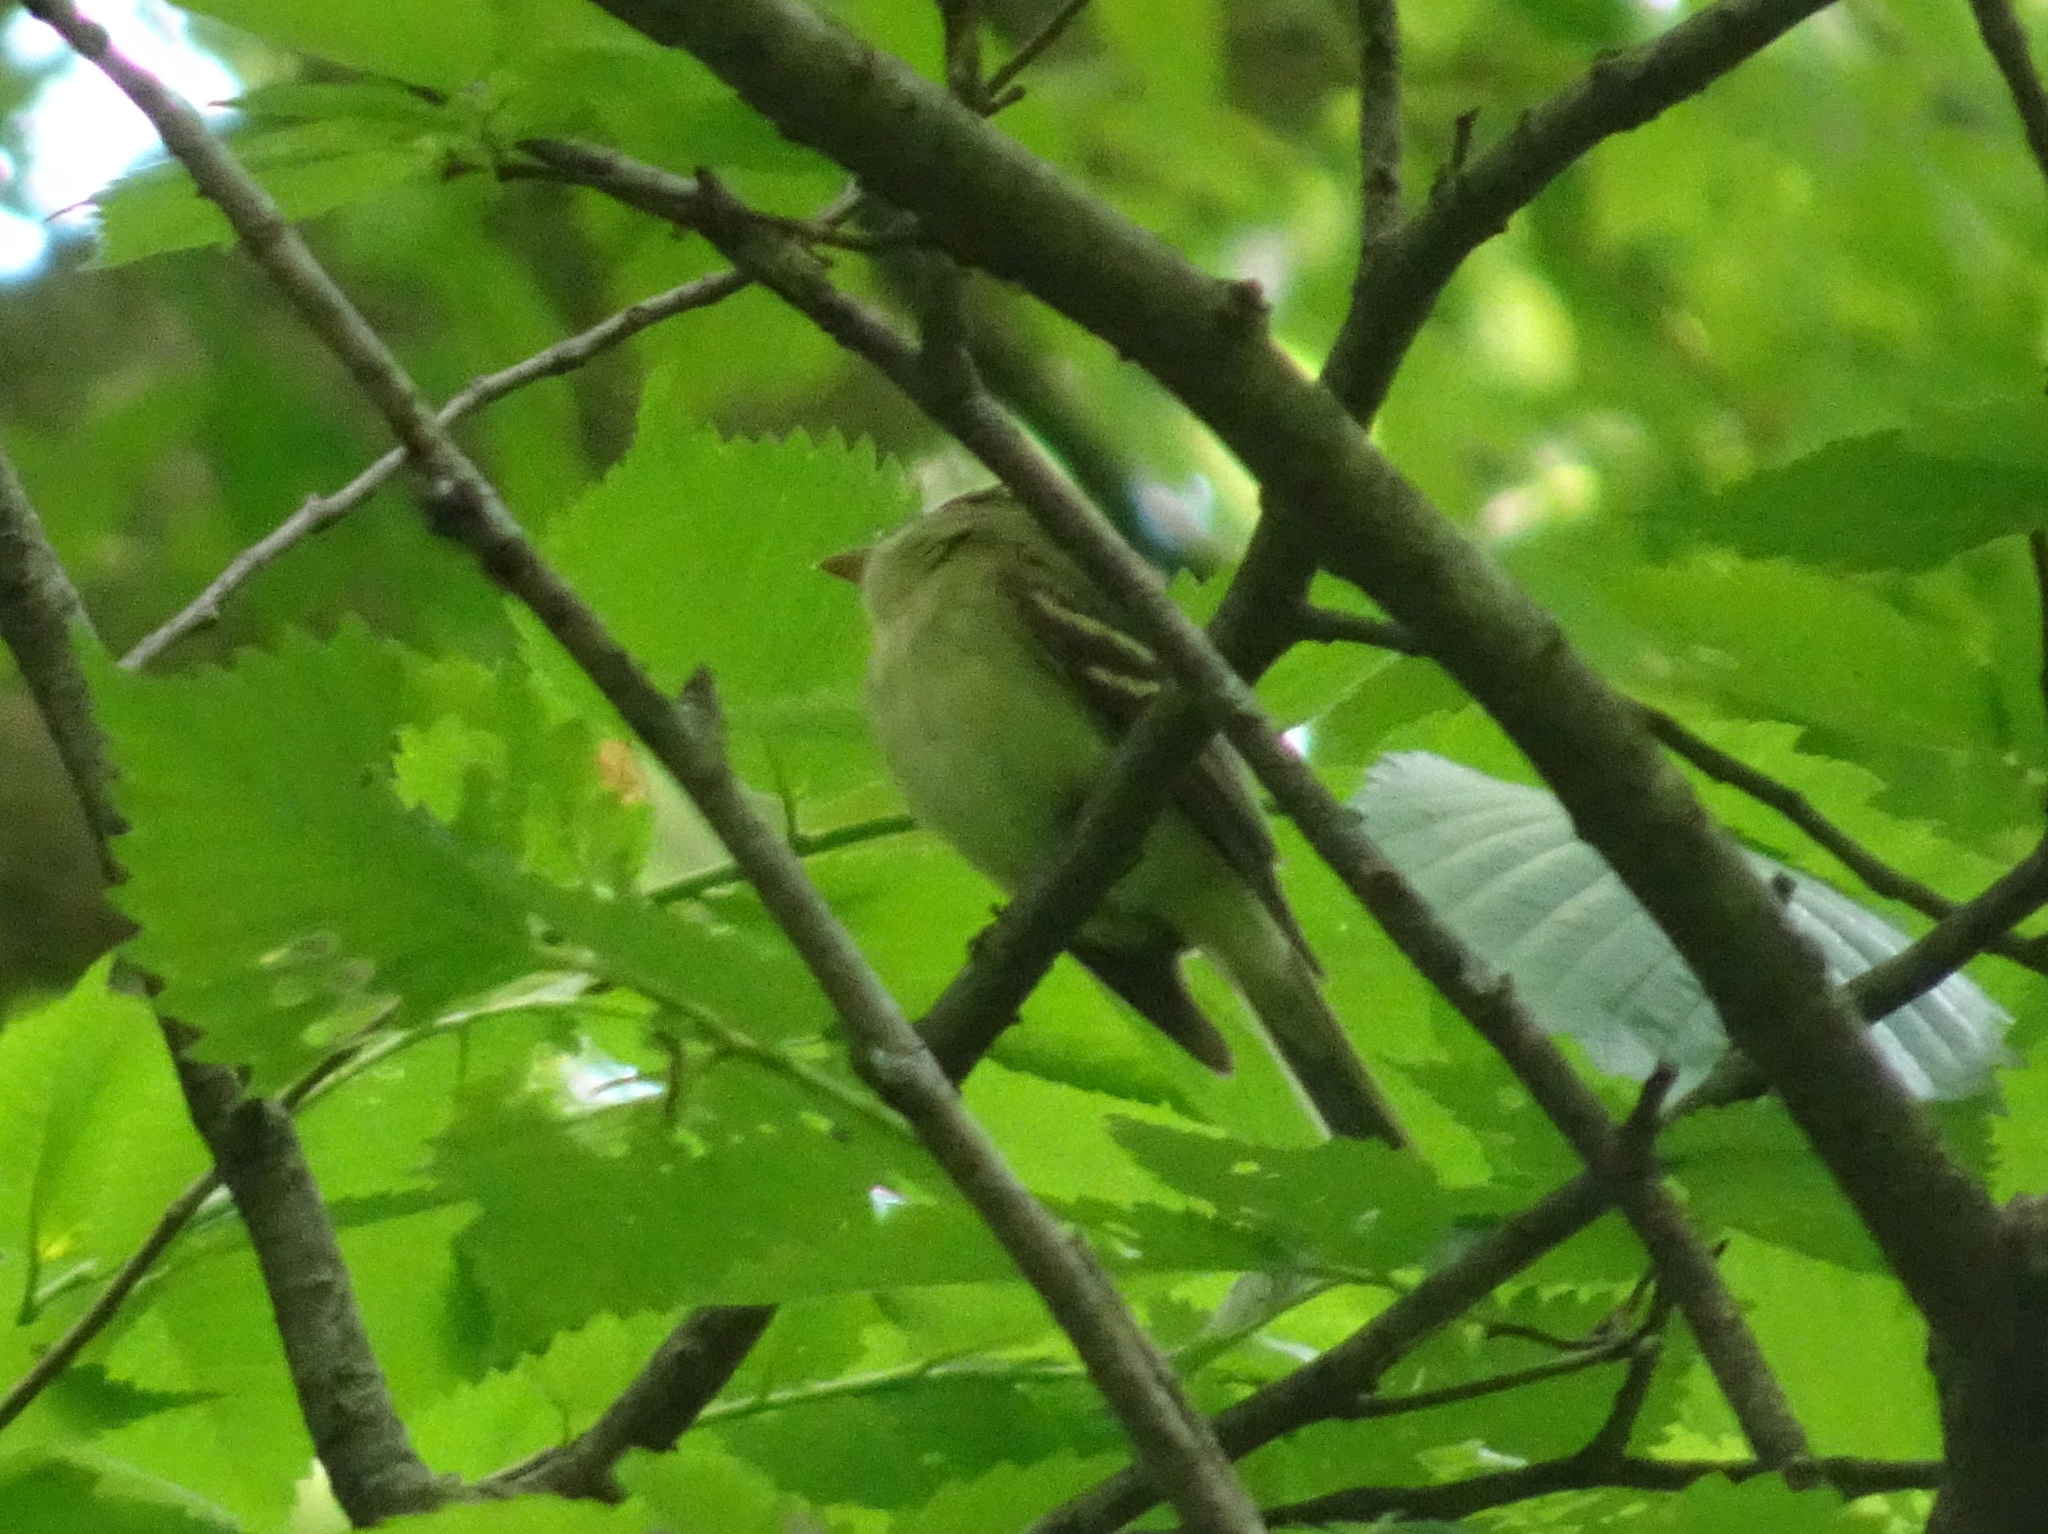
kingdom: Animalia
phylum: Chordata
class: Aves
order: Passeriformes
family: Tyrannidae
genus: Empidonax
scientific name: Empidonax virescens
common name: Acadian flycatcher
